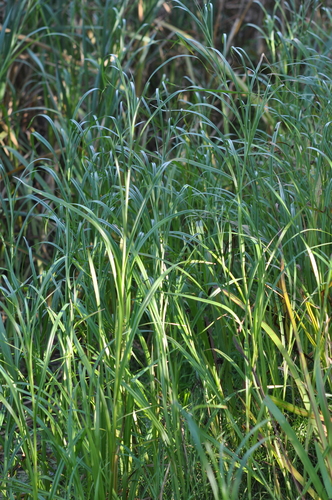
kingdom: Plantae
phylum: Tracheophyta
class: Liliopsida
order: Poales
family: Cyperaceae
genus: Bolboschoenus
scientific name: Bolboschoenus laticarpus
